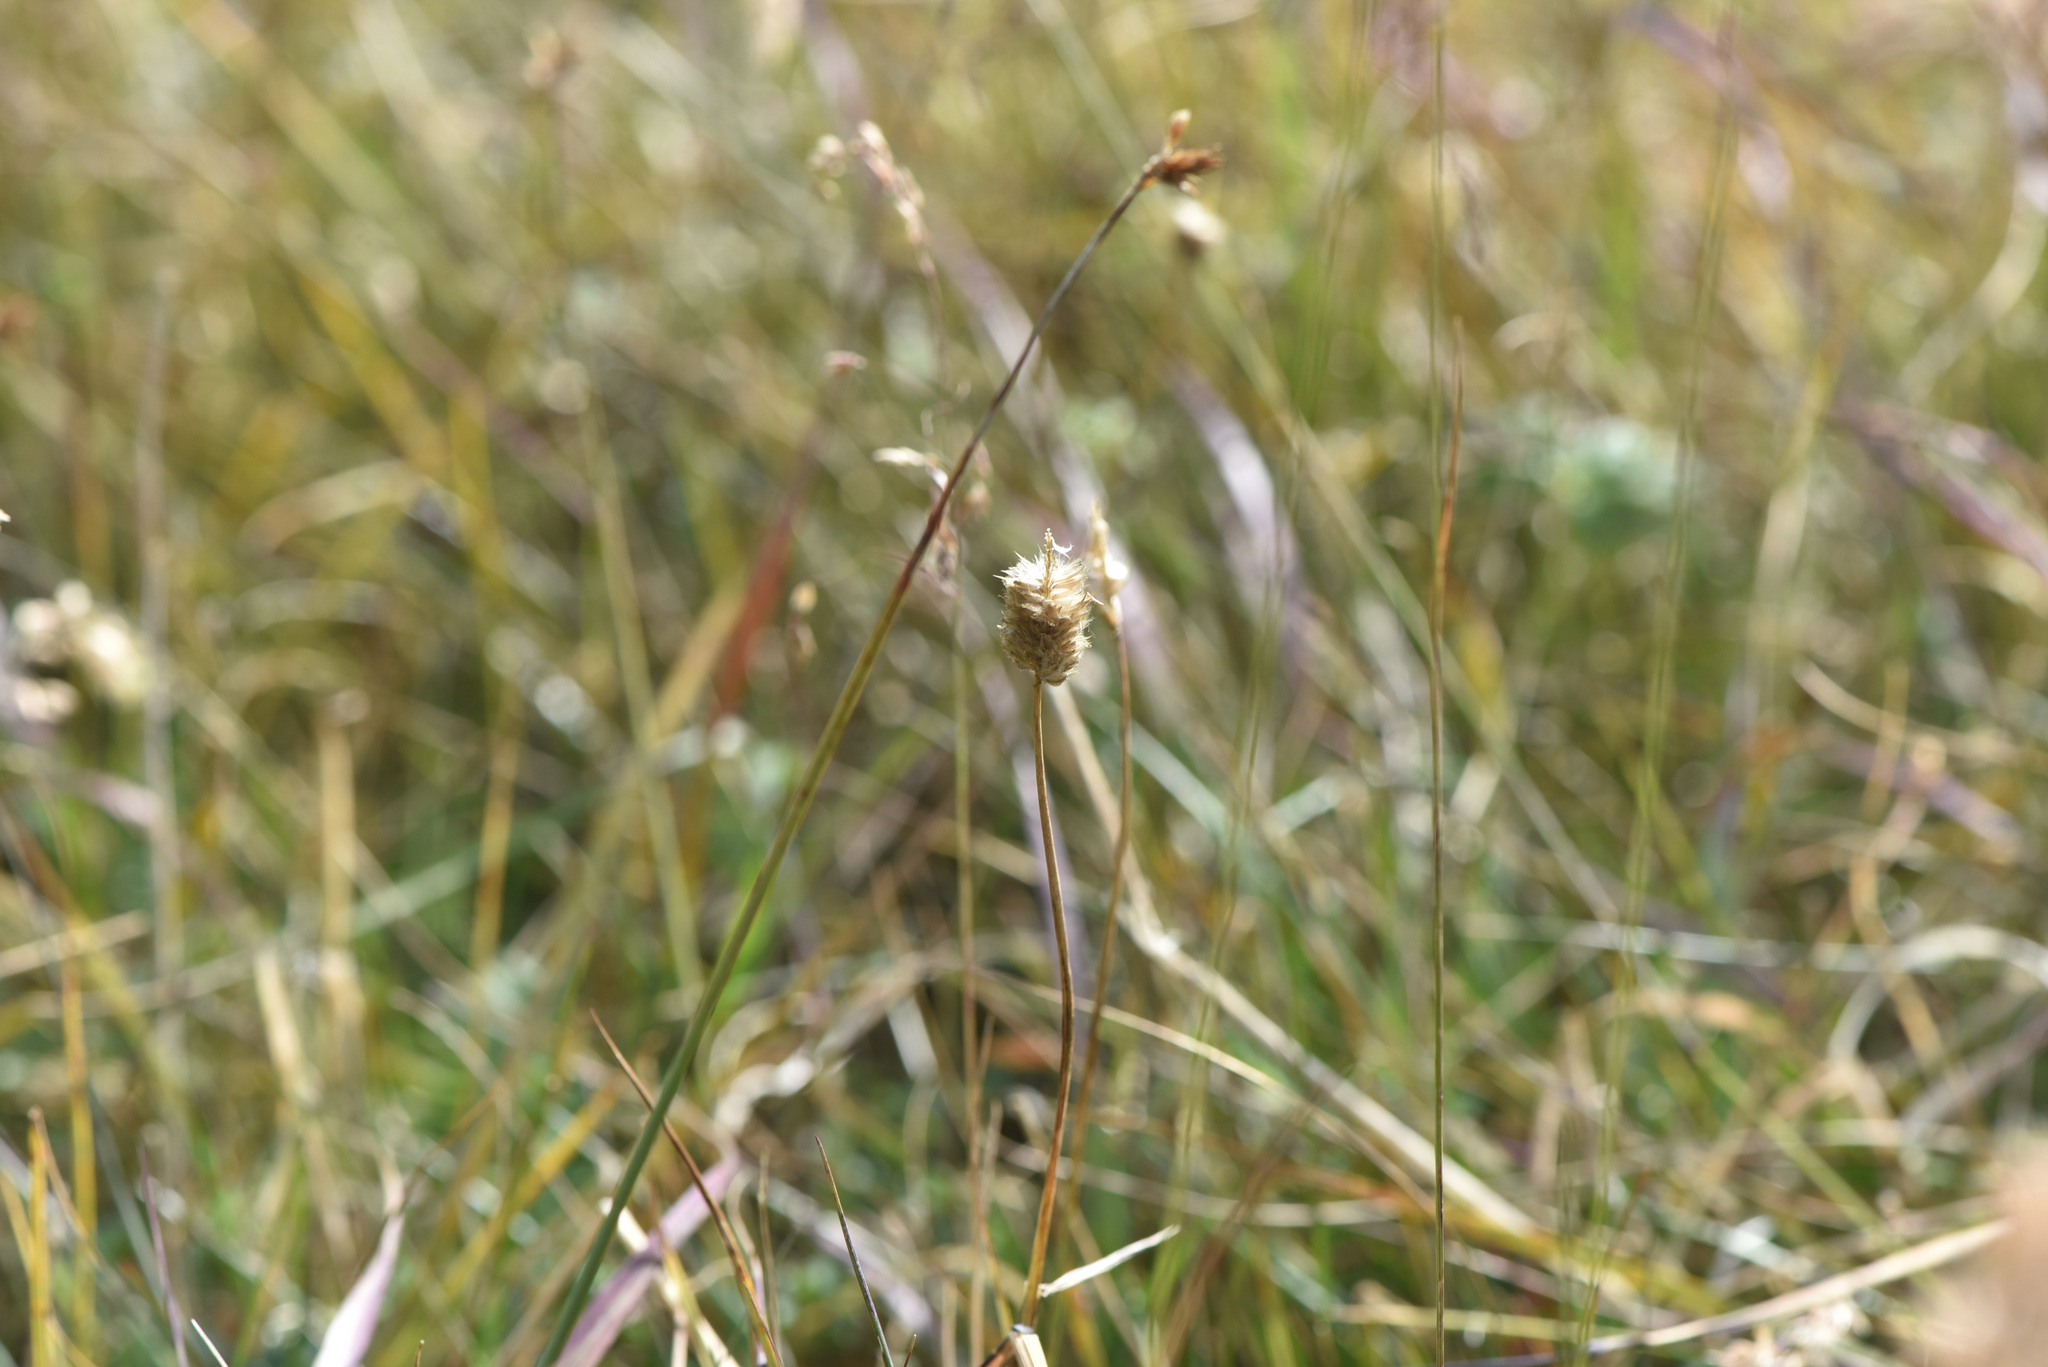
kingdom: Plantae
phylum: Tracheophyta
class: Liliopsida
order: Poales
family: Poaceae
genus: Alopecurus
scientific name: Alopecurus magellanicus
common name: Alpine foxtail
